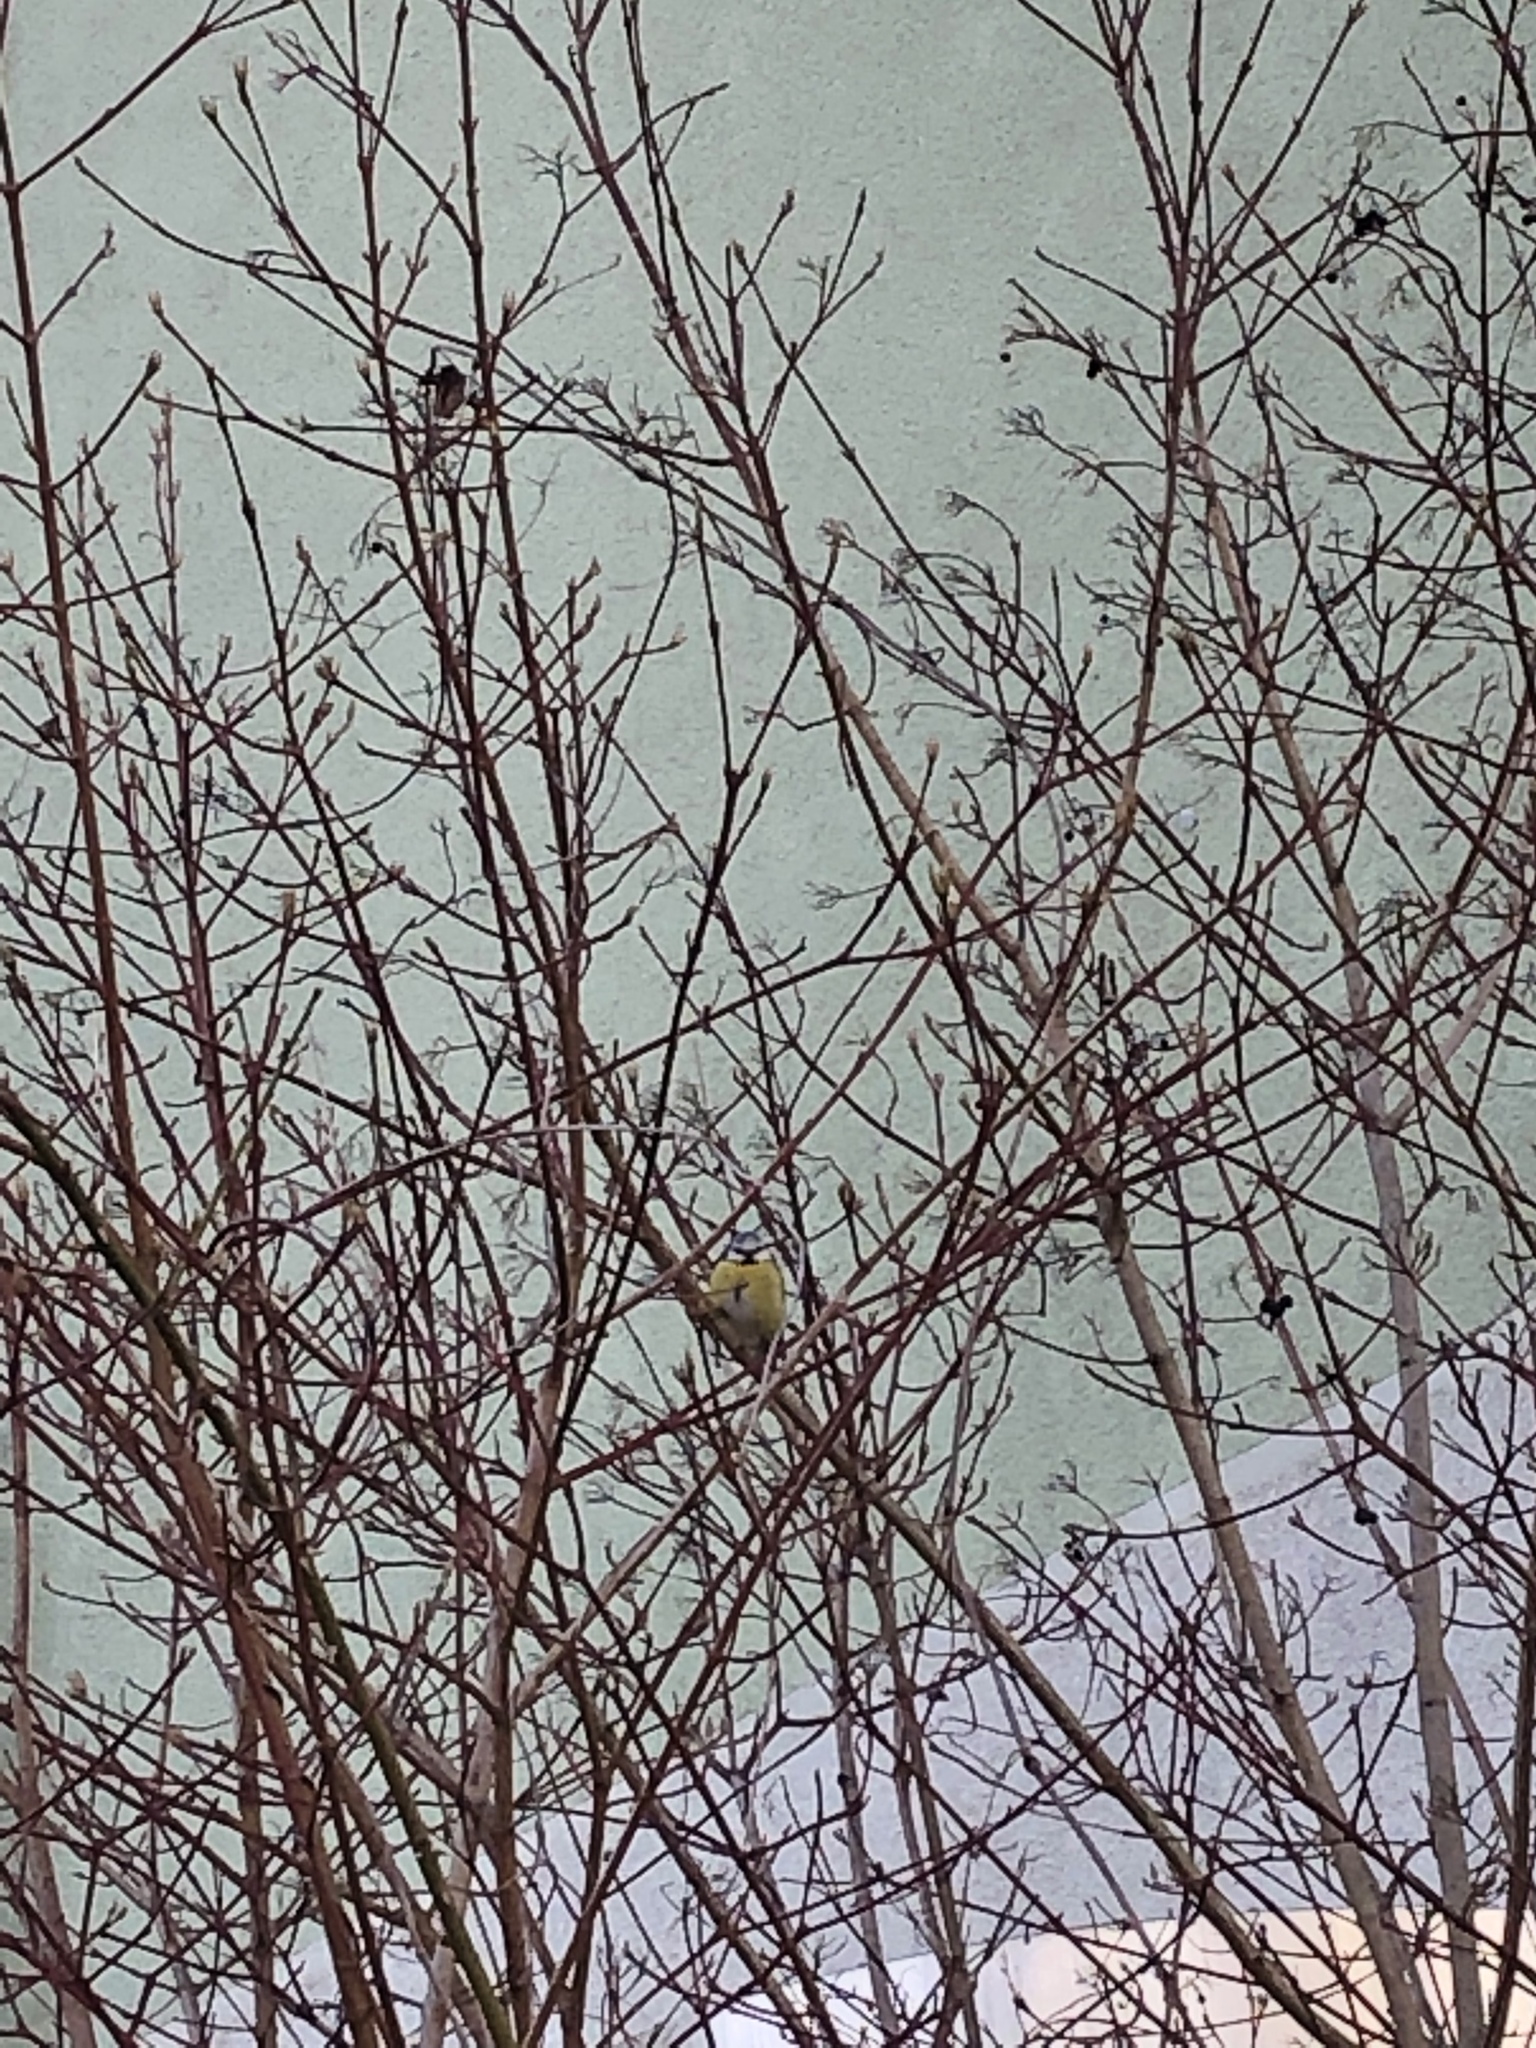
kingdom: Animalia
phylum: Chordata
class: Aves
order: Passeriformes
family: Paridae
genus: Cyanistes
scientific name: Cyanistes caeruleus
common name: Eurasian blue tit
